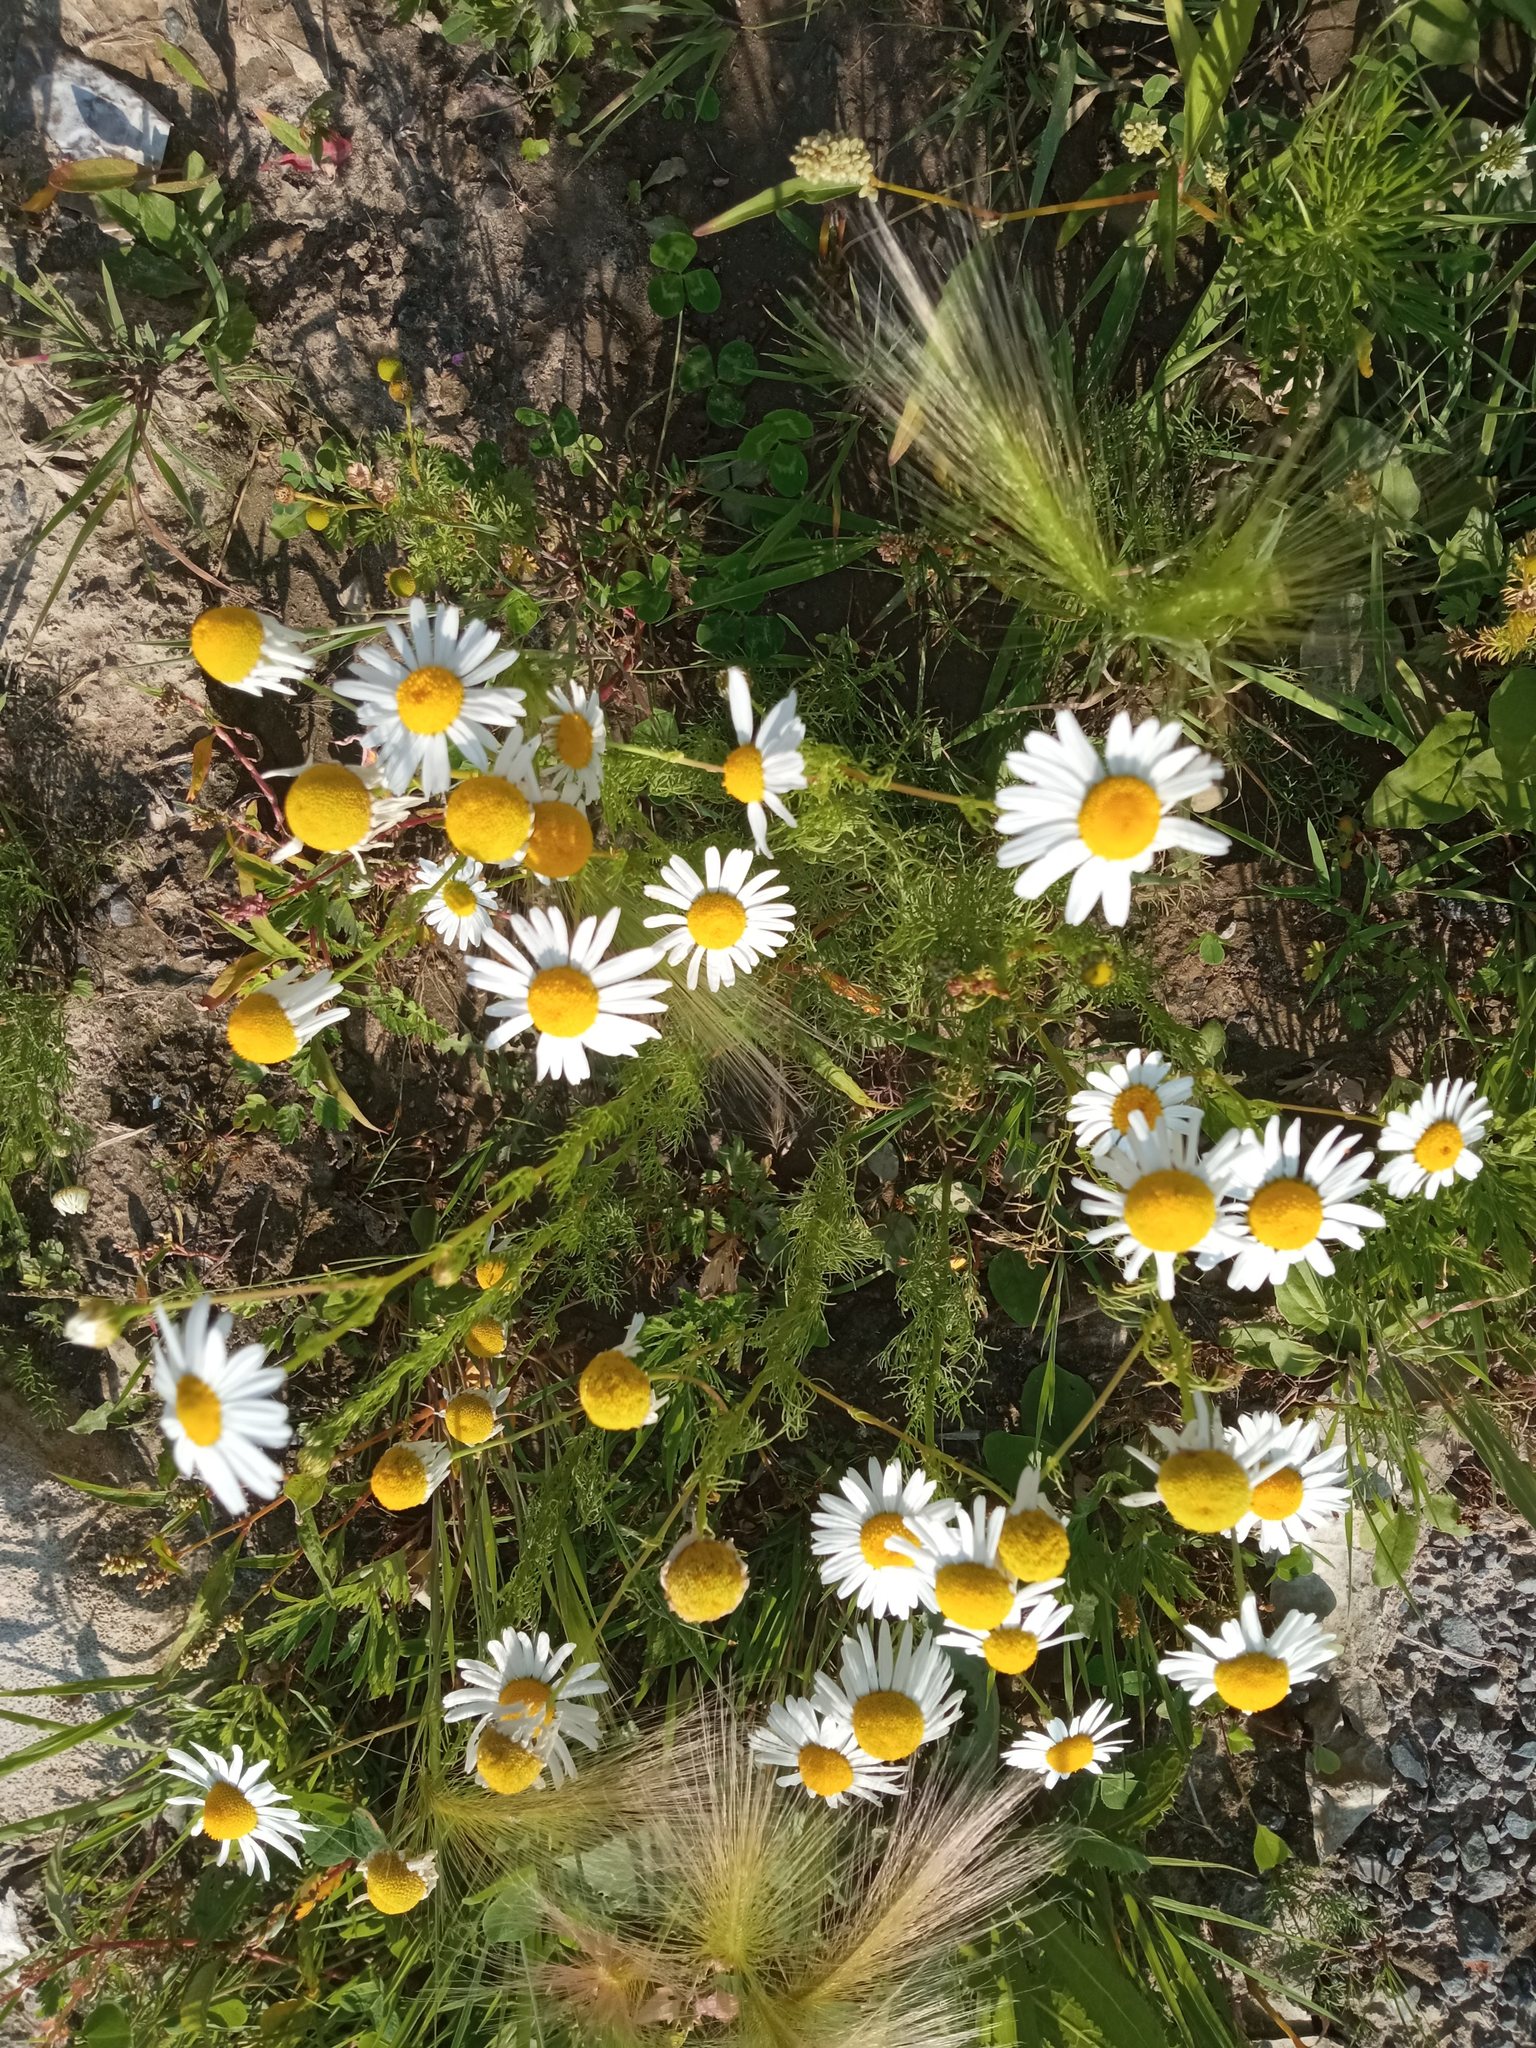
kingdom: Plantae
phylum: Tracheophyta
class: Magnoliopsida
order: Asterales
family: Asteraceae
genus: Tripleurospermum
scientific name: Tripleurospermum inodorum
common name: Scentless mayweed
